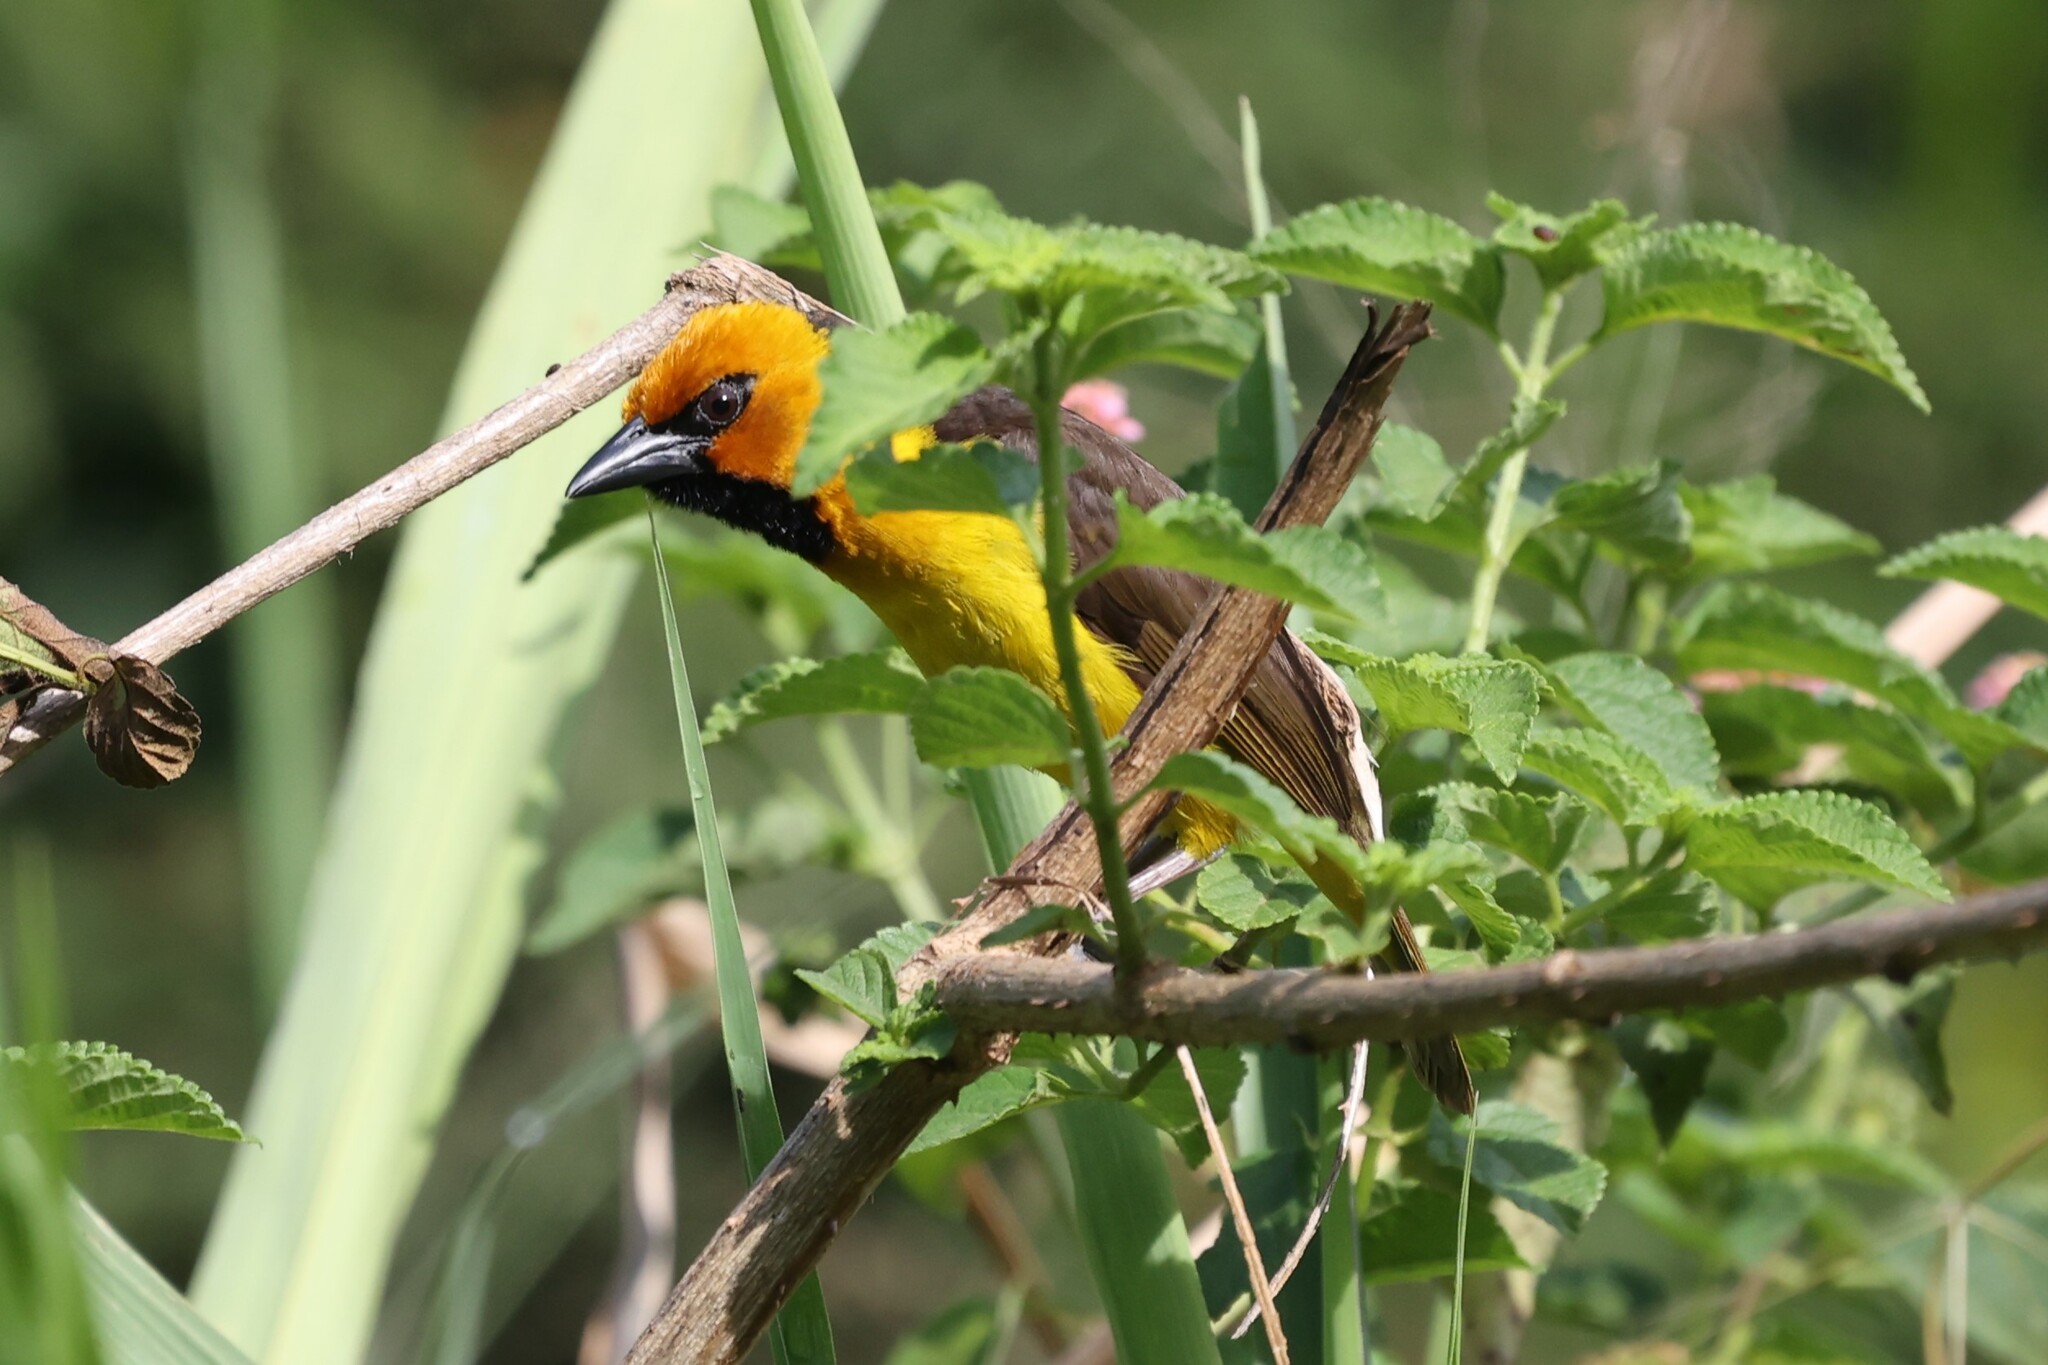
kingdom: Animalia
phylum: Chordata
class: Aves
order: Passeriformes
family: Ploceidae
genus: Ploceus
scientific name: Ploceus nigricollis
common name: Black-necked weaver
